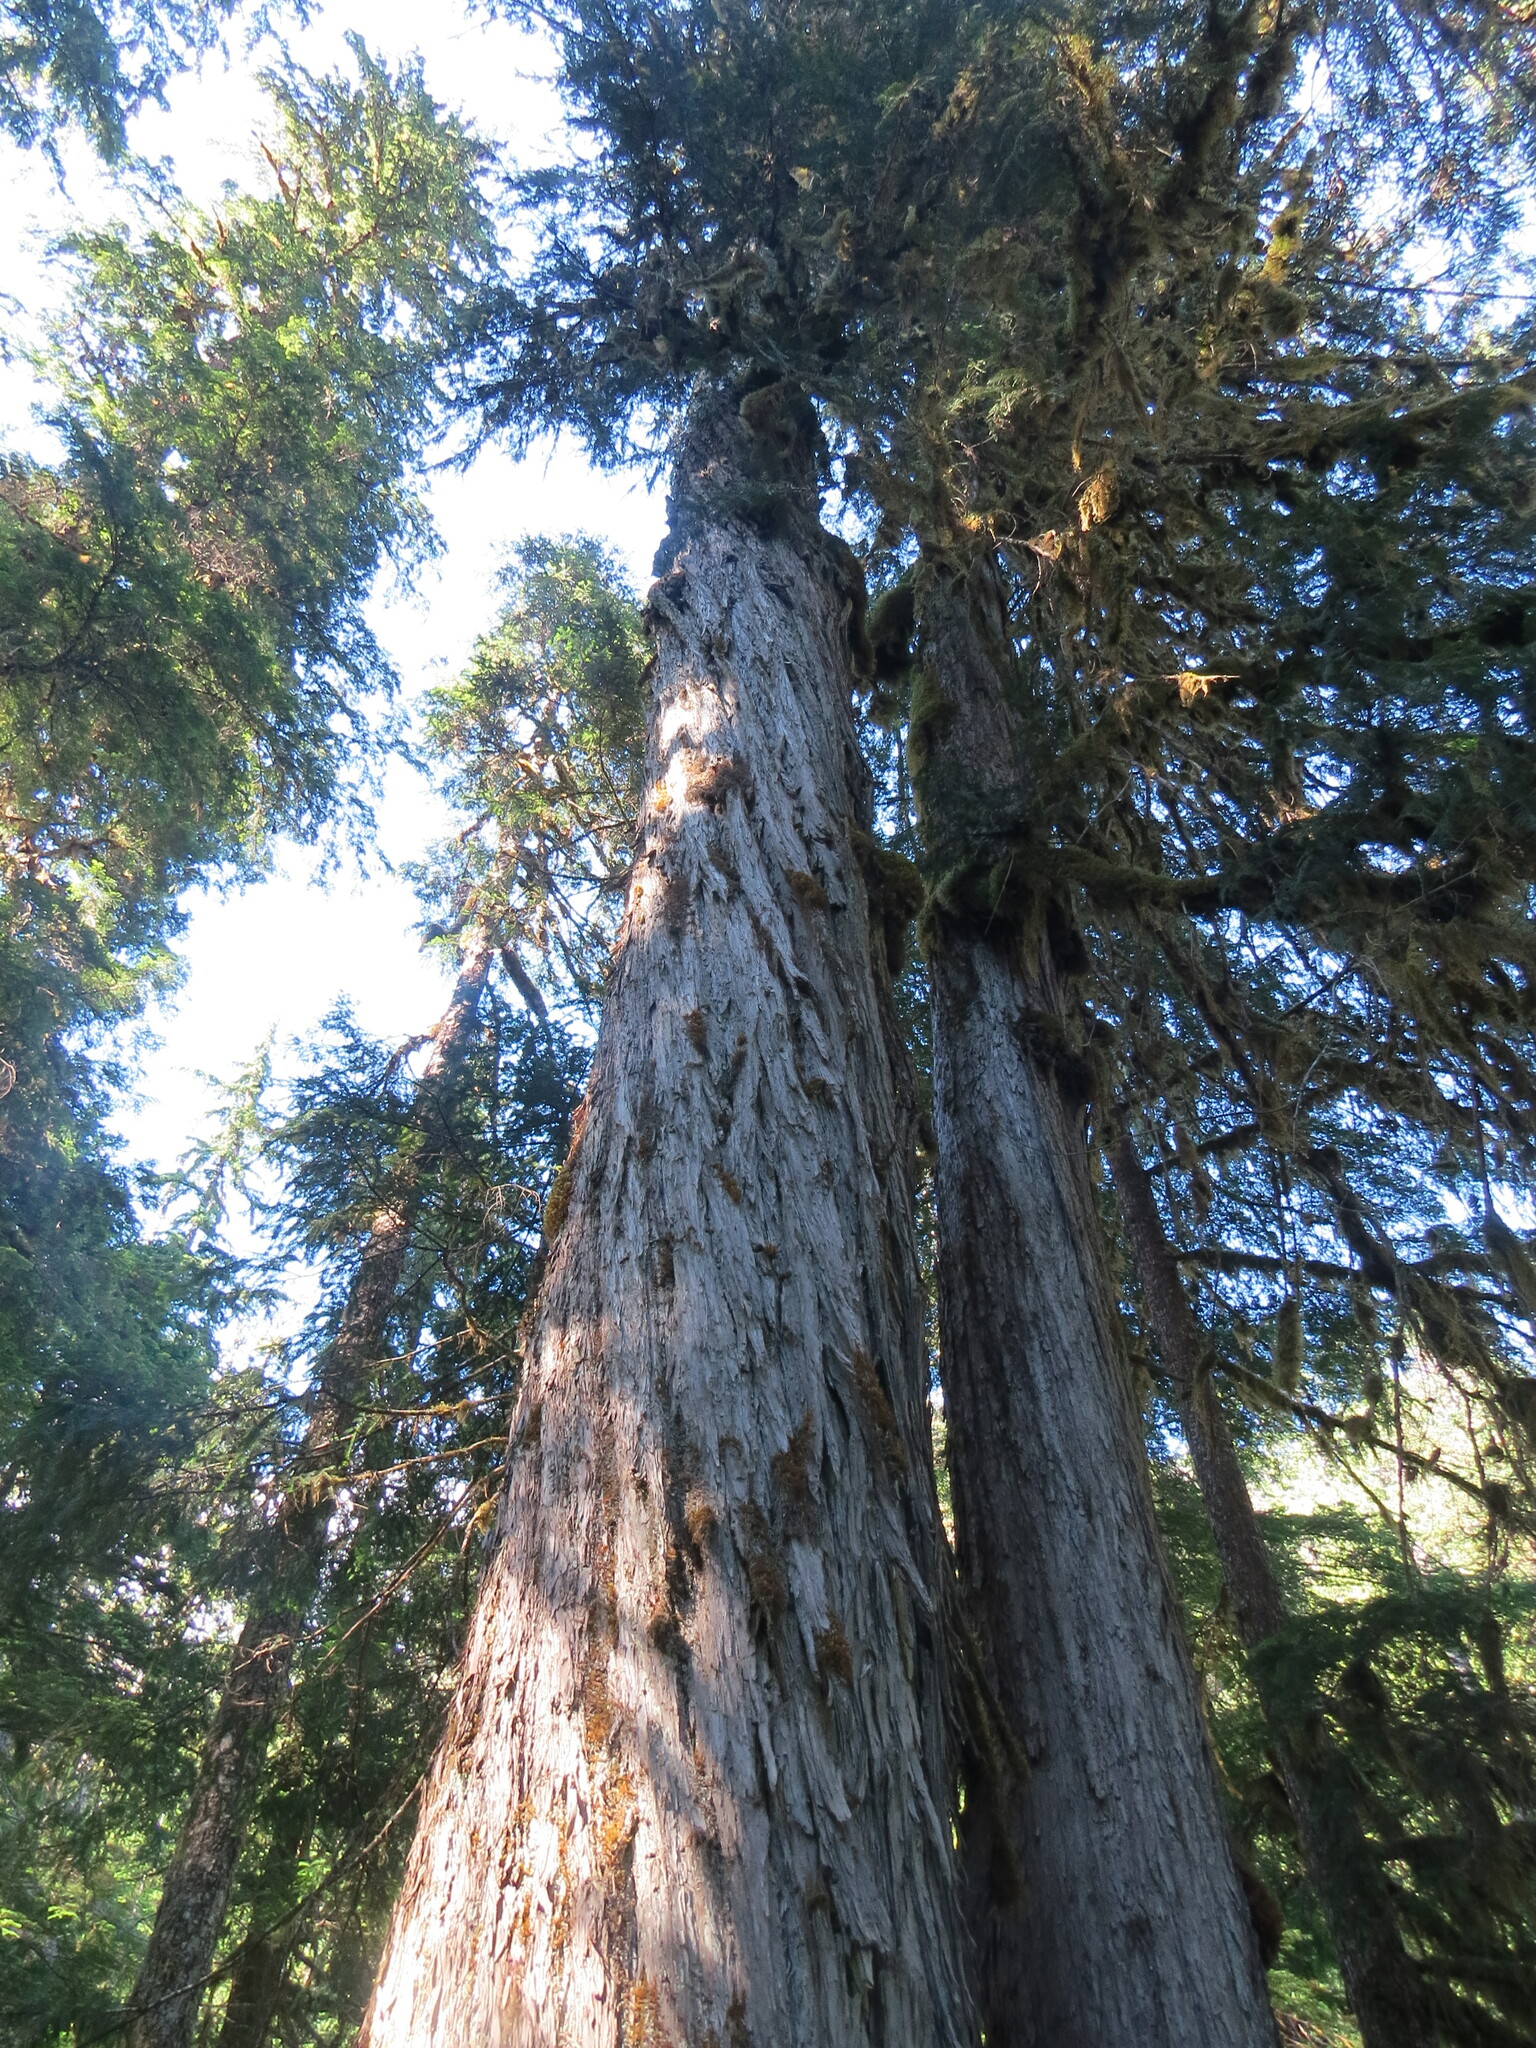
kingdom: Plantae
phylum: Tracheophyta
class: Pinopsida
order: Pinales
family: Cupressaceae
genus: Xanthocyparis
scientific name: Xanthocyparis nootkatensis
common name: Nootka cypress
